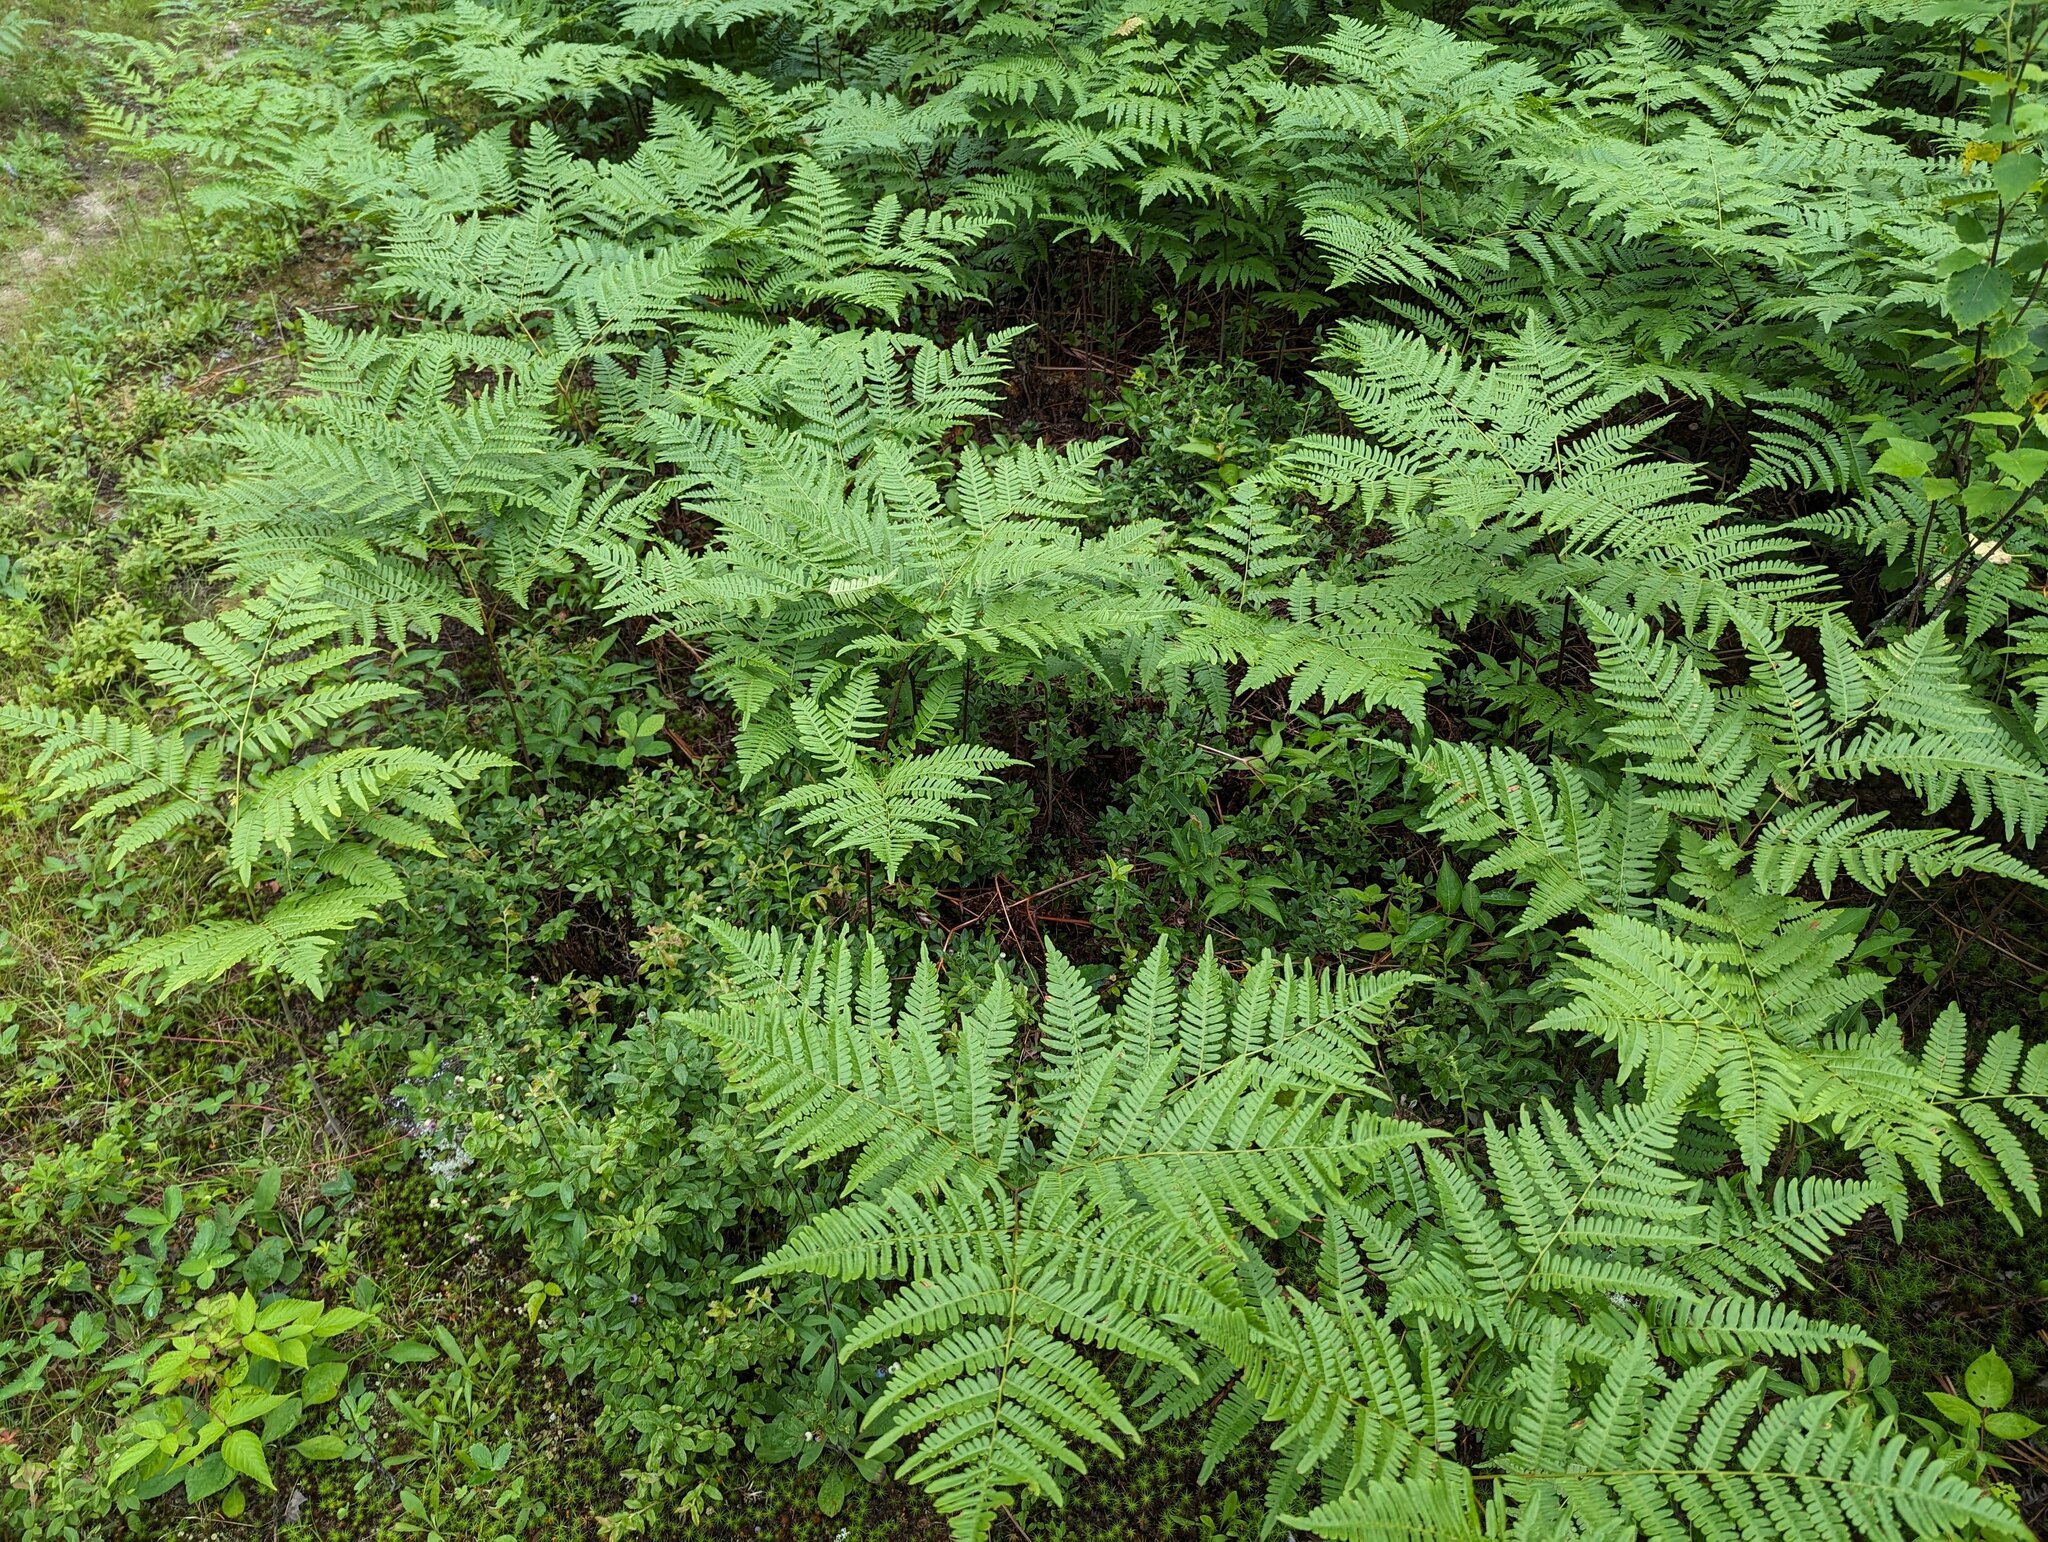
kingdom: Plantae
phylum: Tracheophyta
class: Polypodiopsida
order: Polypodiales
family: Dennstaedtiaceae
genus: Pteridium
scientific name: Pteridium aquilinum
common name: Bracken
